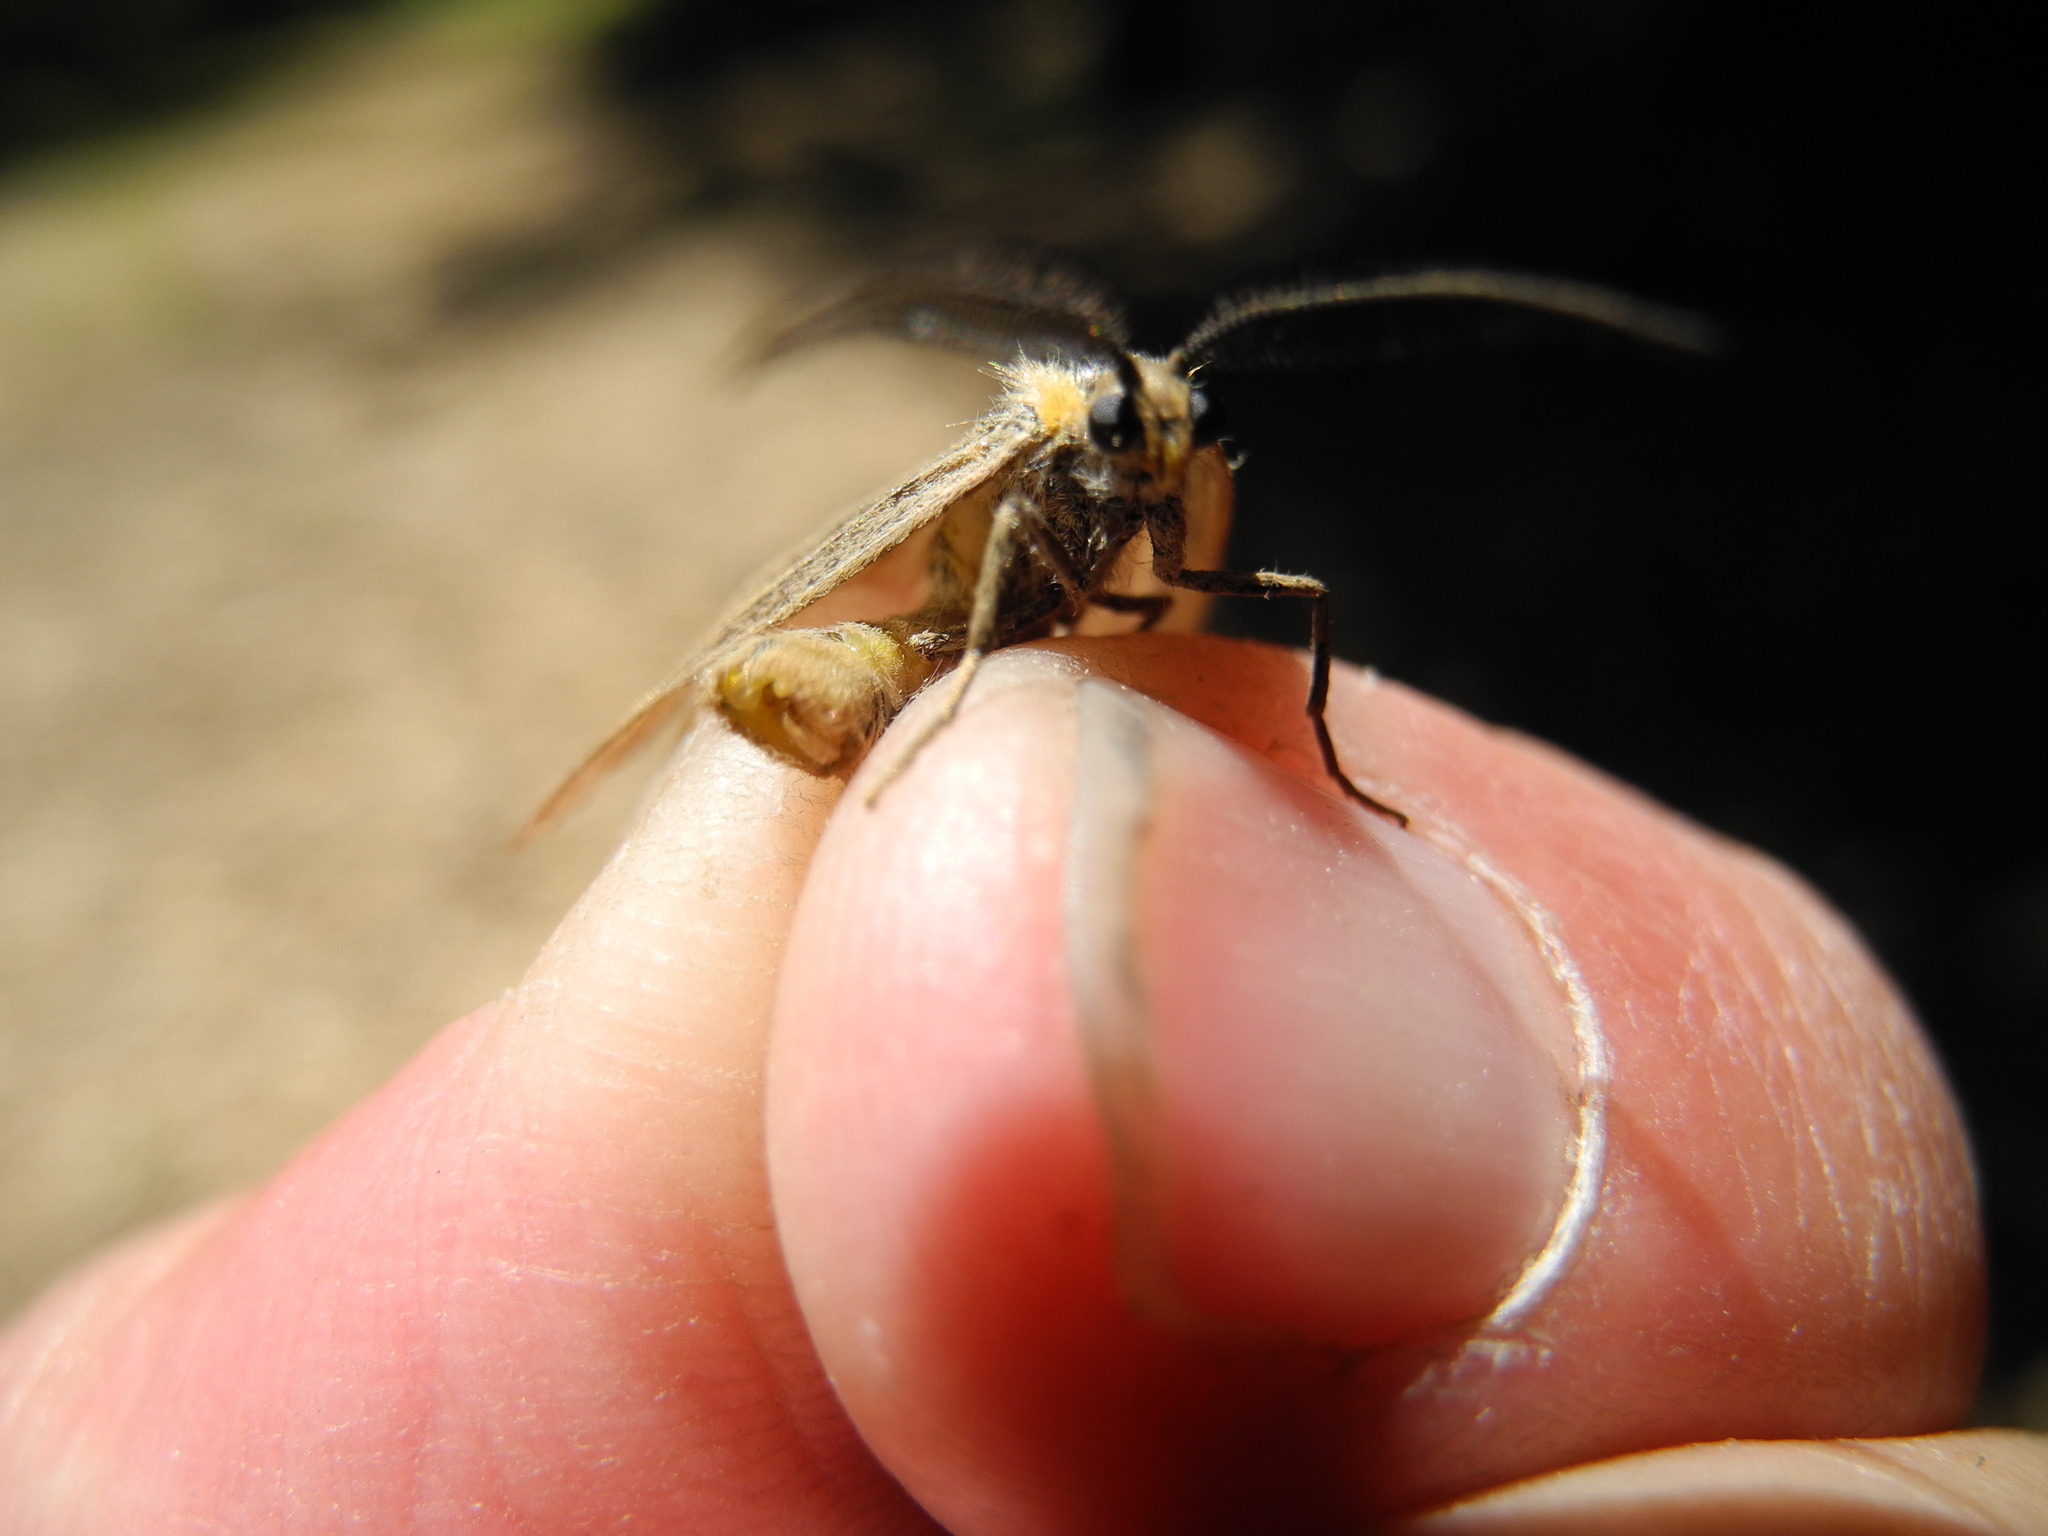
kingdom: Animalia
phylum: Arthropoda
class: Insecta
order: Lepidoptera
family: Notodontidae
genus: Phryganidia
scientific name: Phryganidia californica
